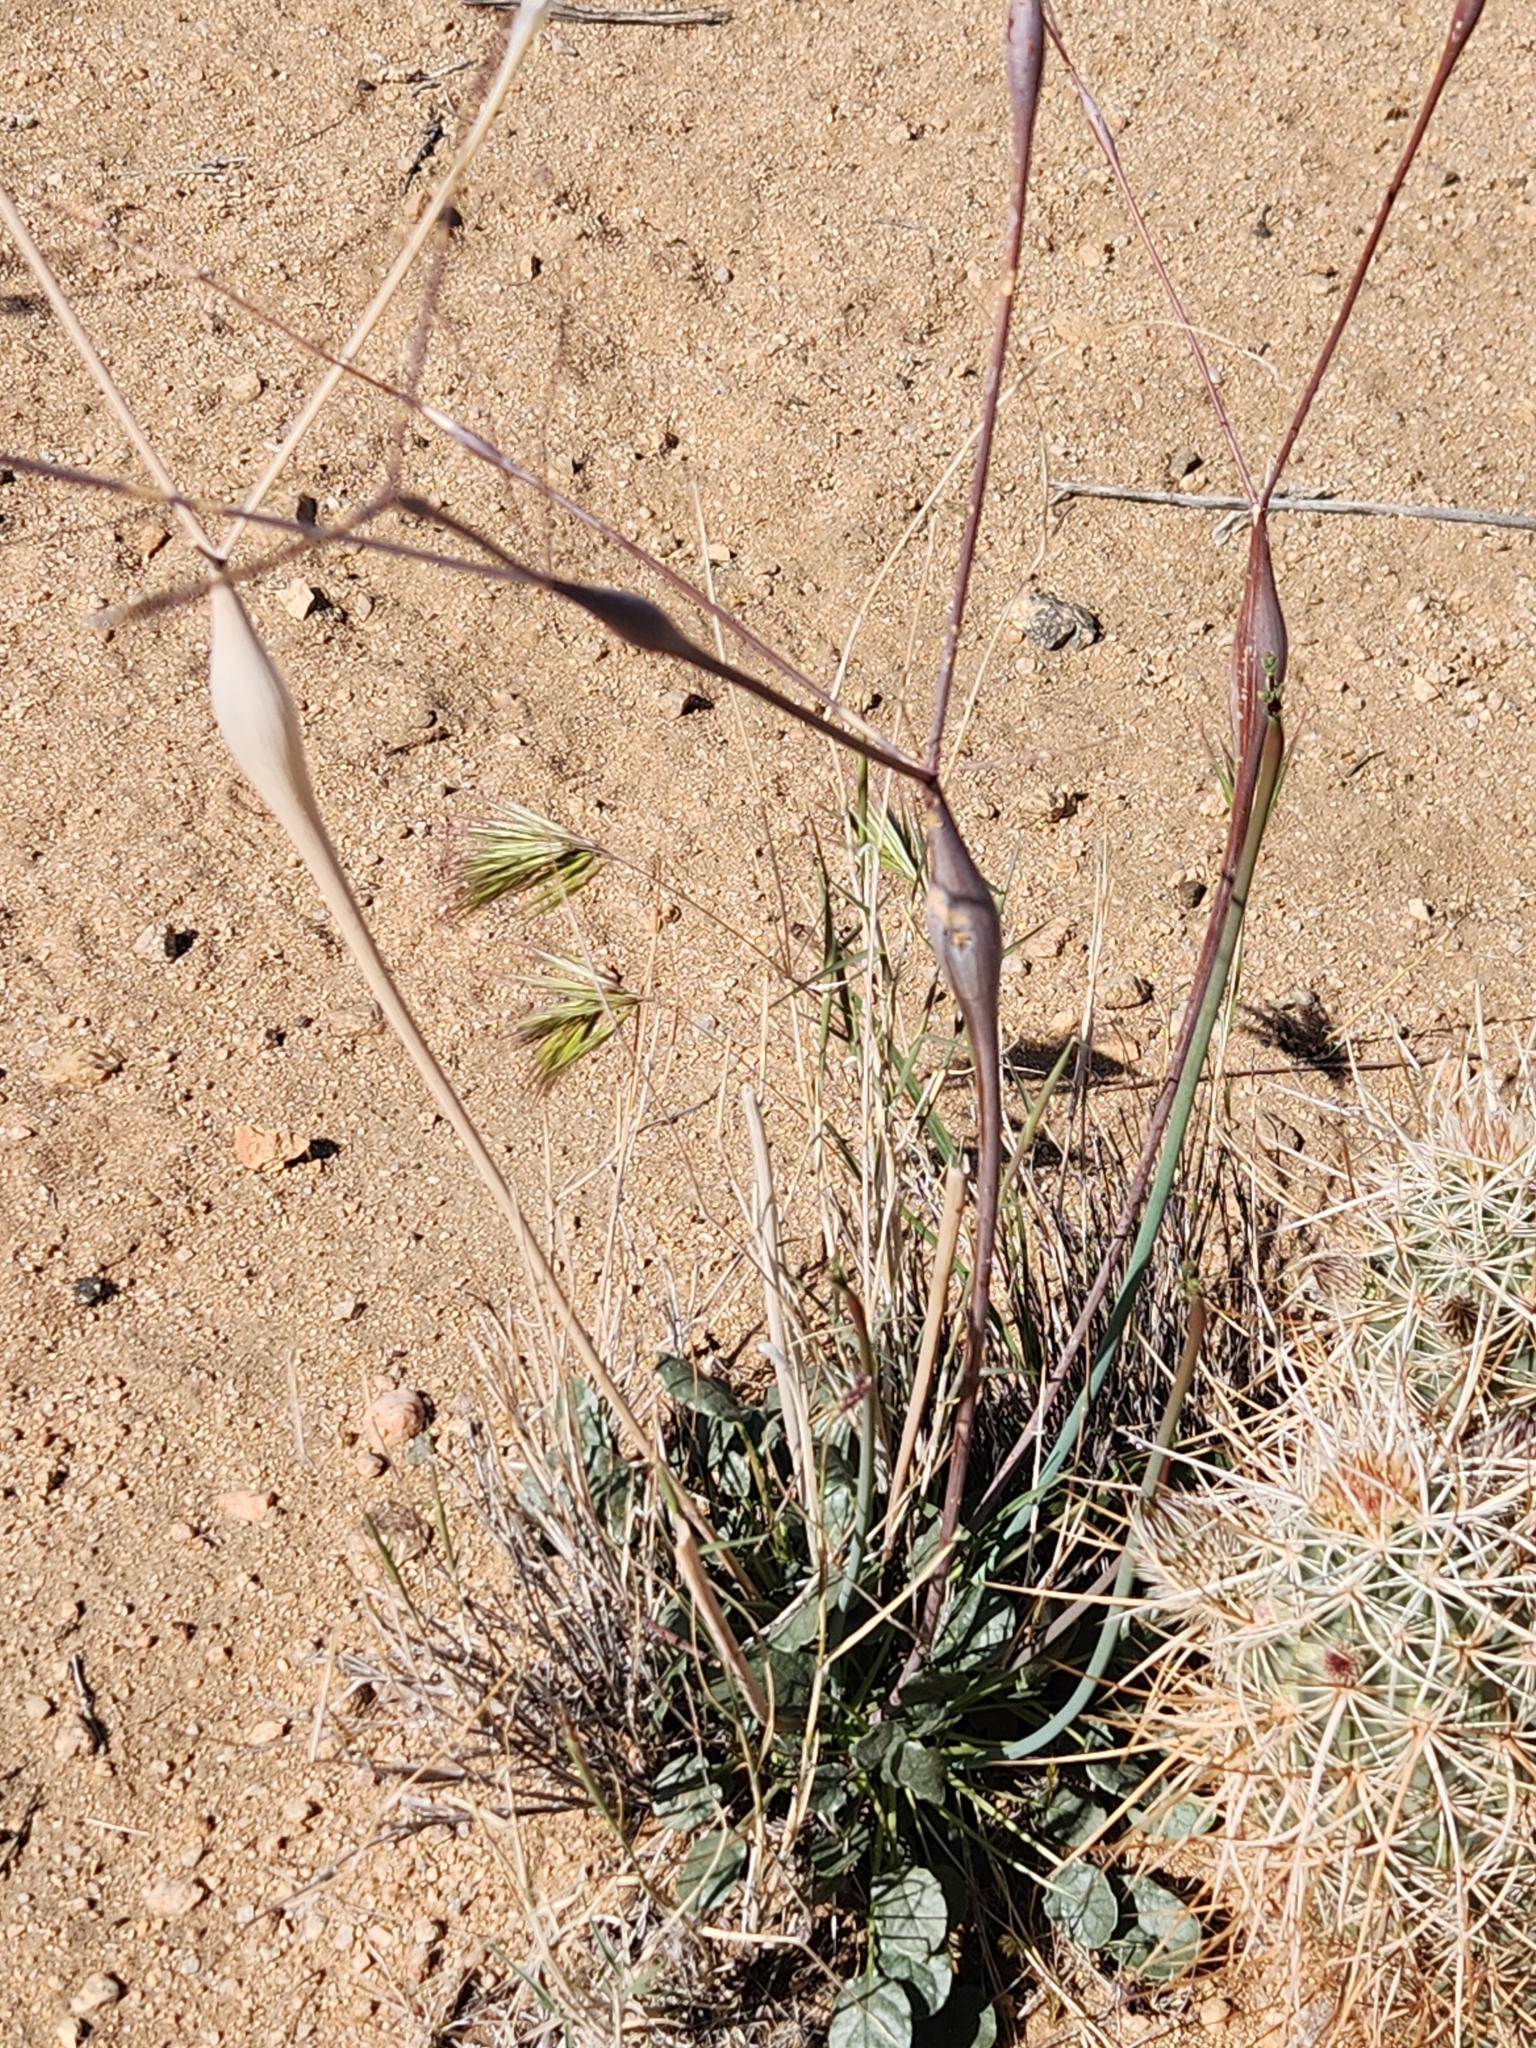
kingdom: Plantae
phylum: Tracheophyta
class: Magnoliopsida
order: Caryophyllales
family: Polygonaceae
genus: Eriogonum
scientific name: Eriogonum inflatum
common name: Desert trumpet
